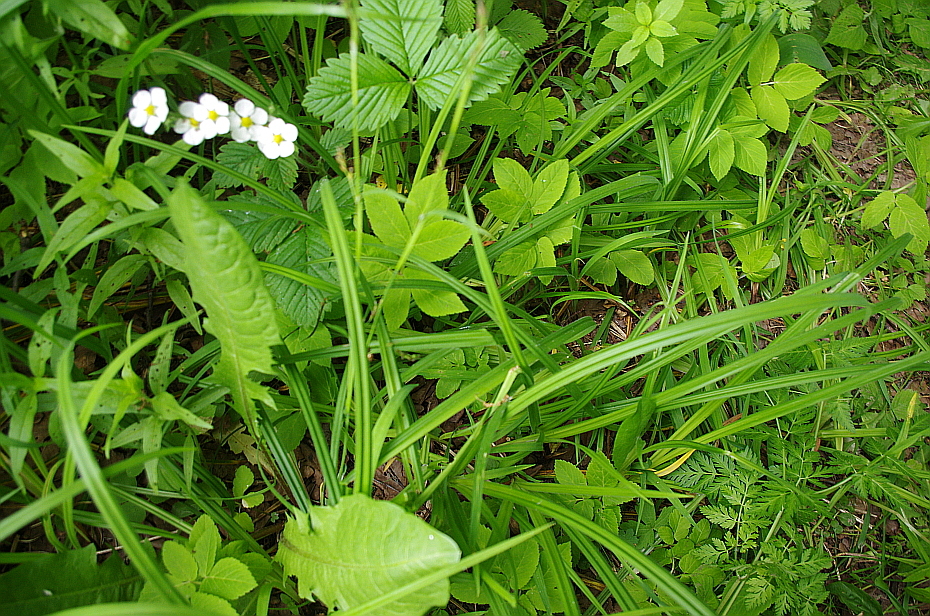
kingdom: Plantae
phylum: Tracheophyta
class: Liliopsida
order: Poales
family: Cyperaceae
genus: Carex
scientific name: Carex pilosa
